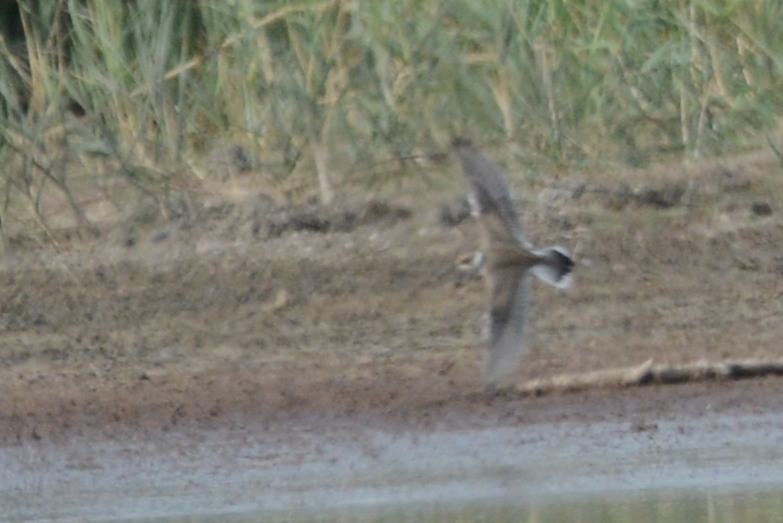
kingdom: Animalia
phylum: Chordata
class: Aves
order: Charadriiformes
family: Charadriidae
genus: Charadrius
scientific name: Charadrius dubius
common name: Little ringed plover
